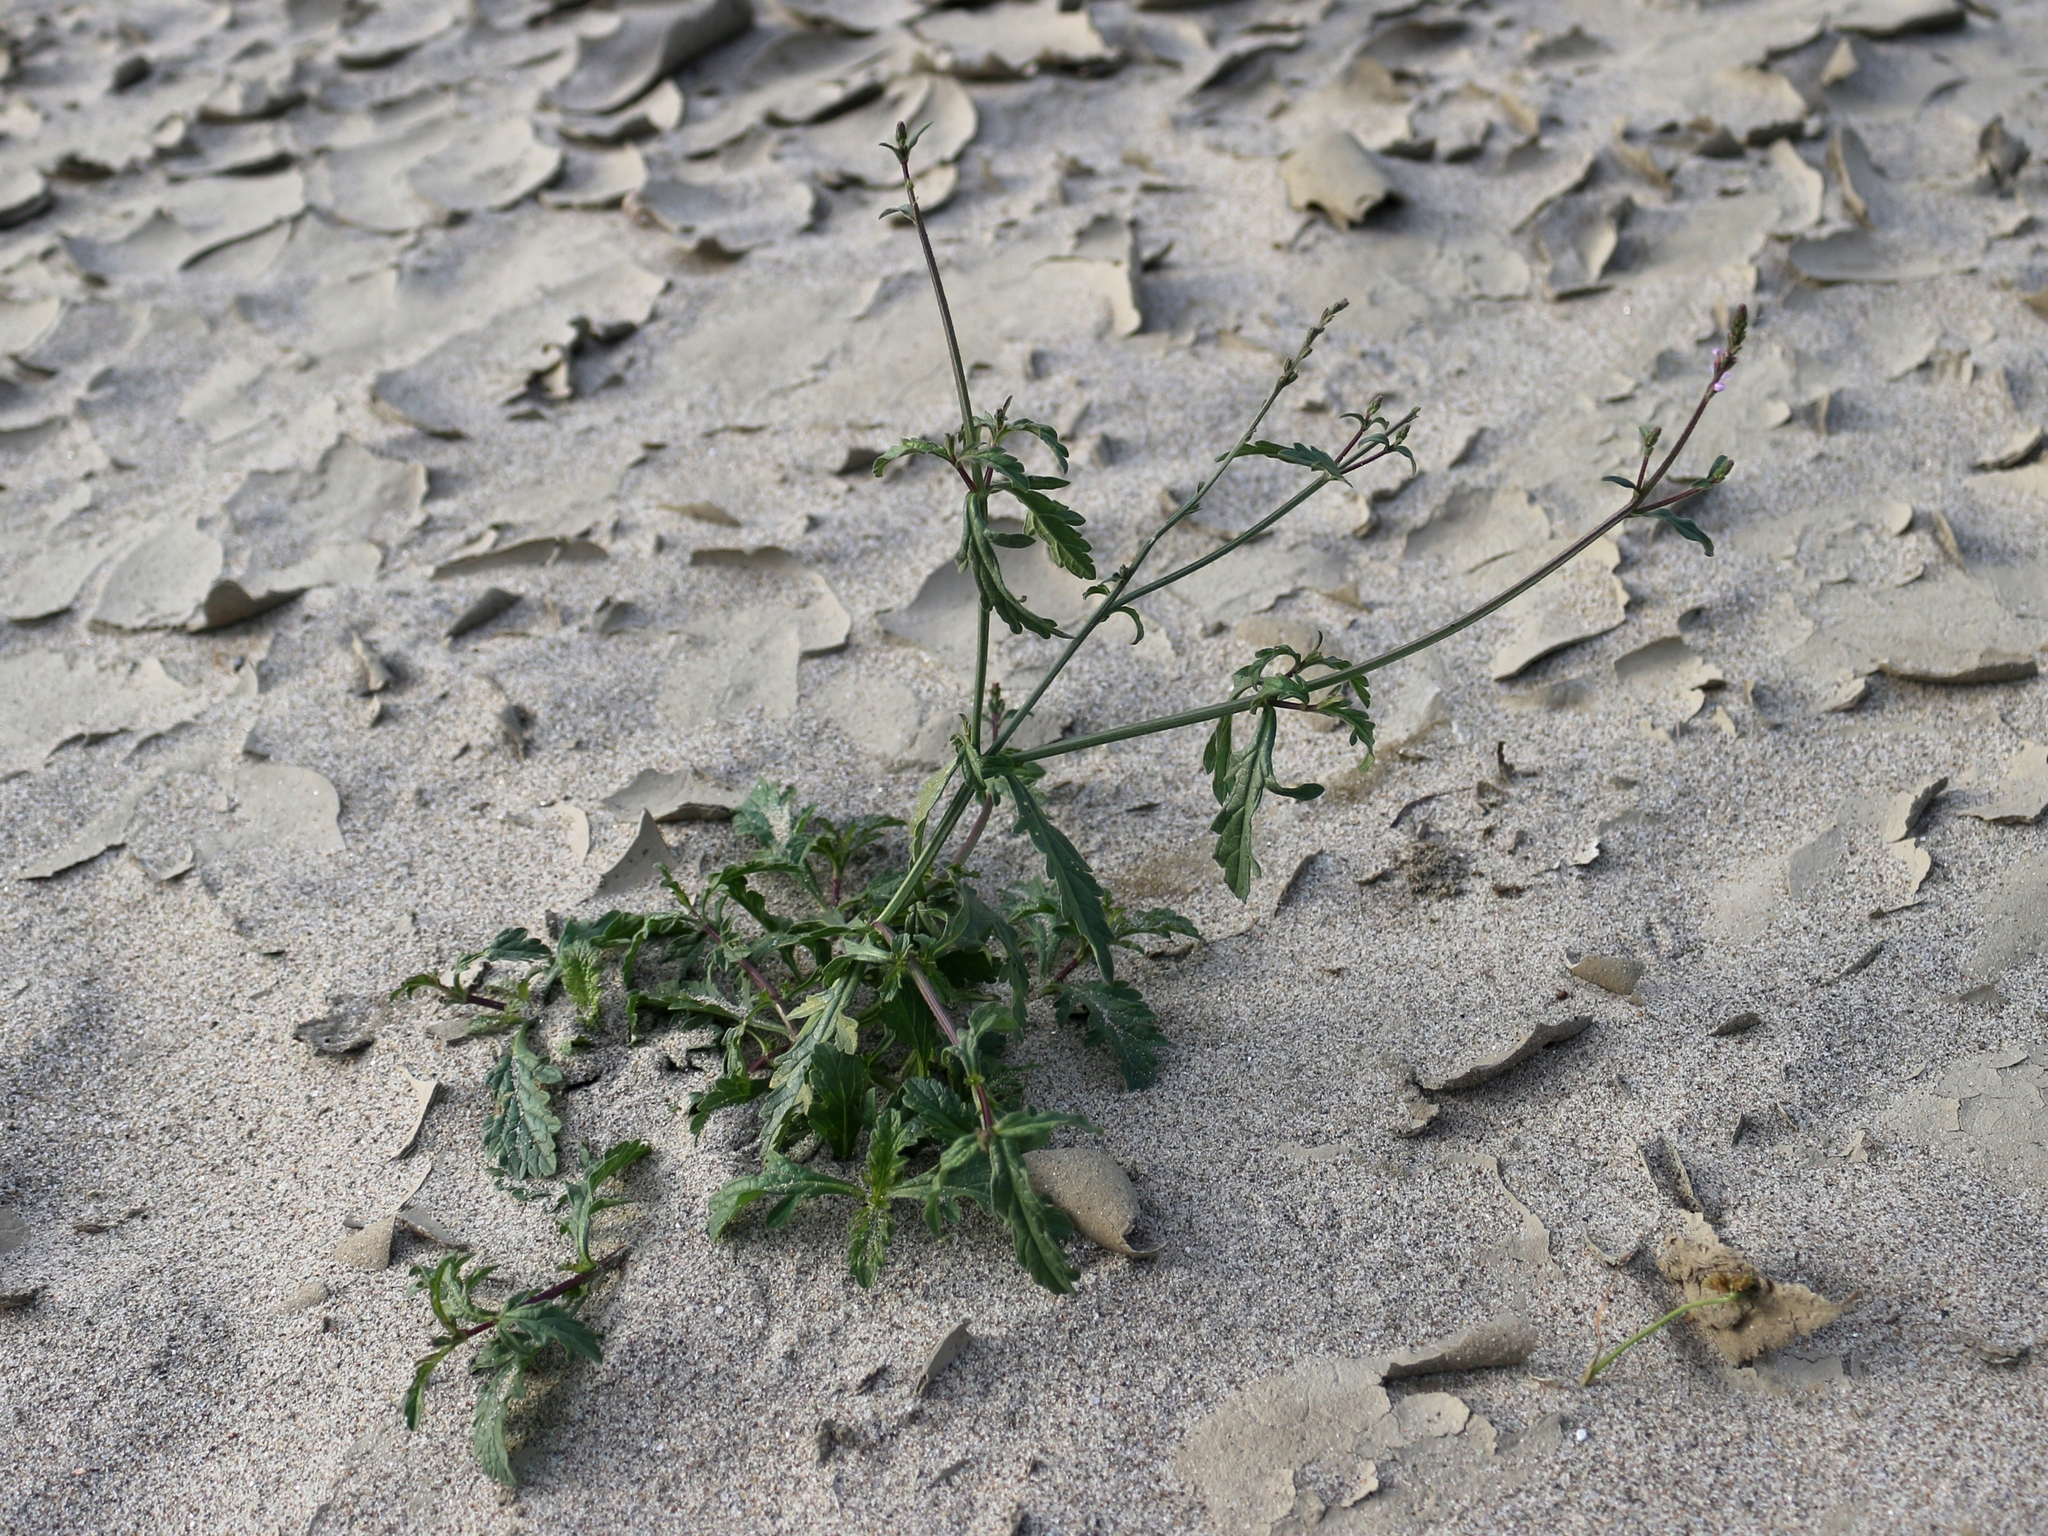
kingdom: Plantae
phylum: Tracheophyta
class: Magnoliopsida
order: Lamiales
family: Verbenaceae
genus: Verbena
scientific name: Verbena officinalis
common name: Vervain
